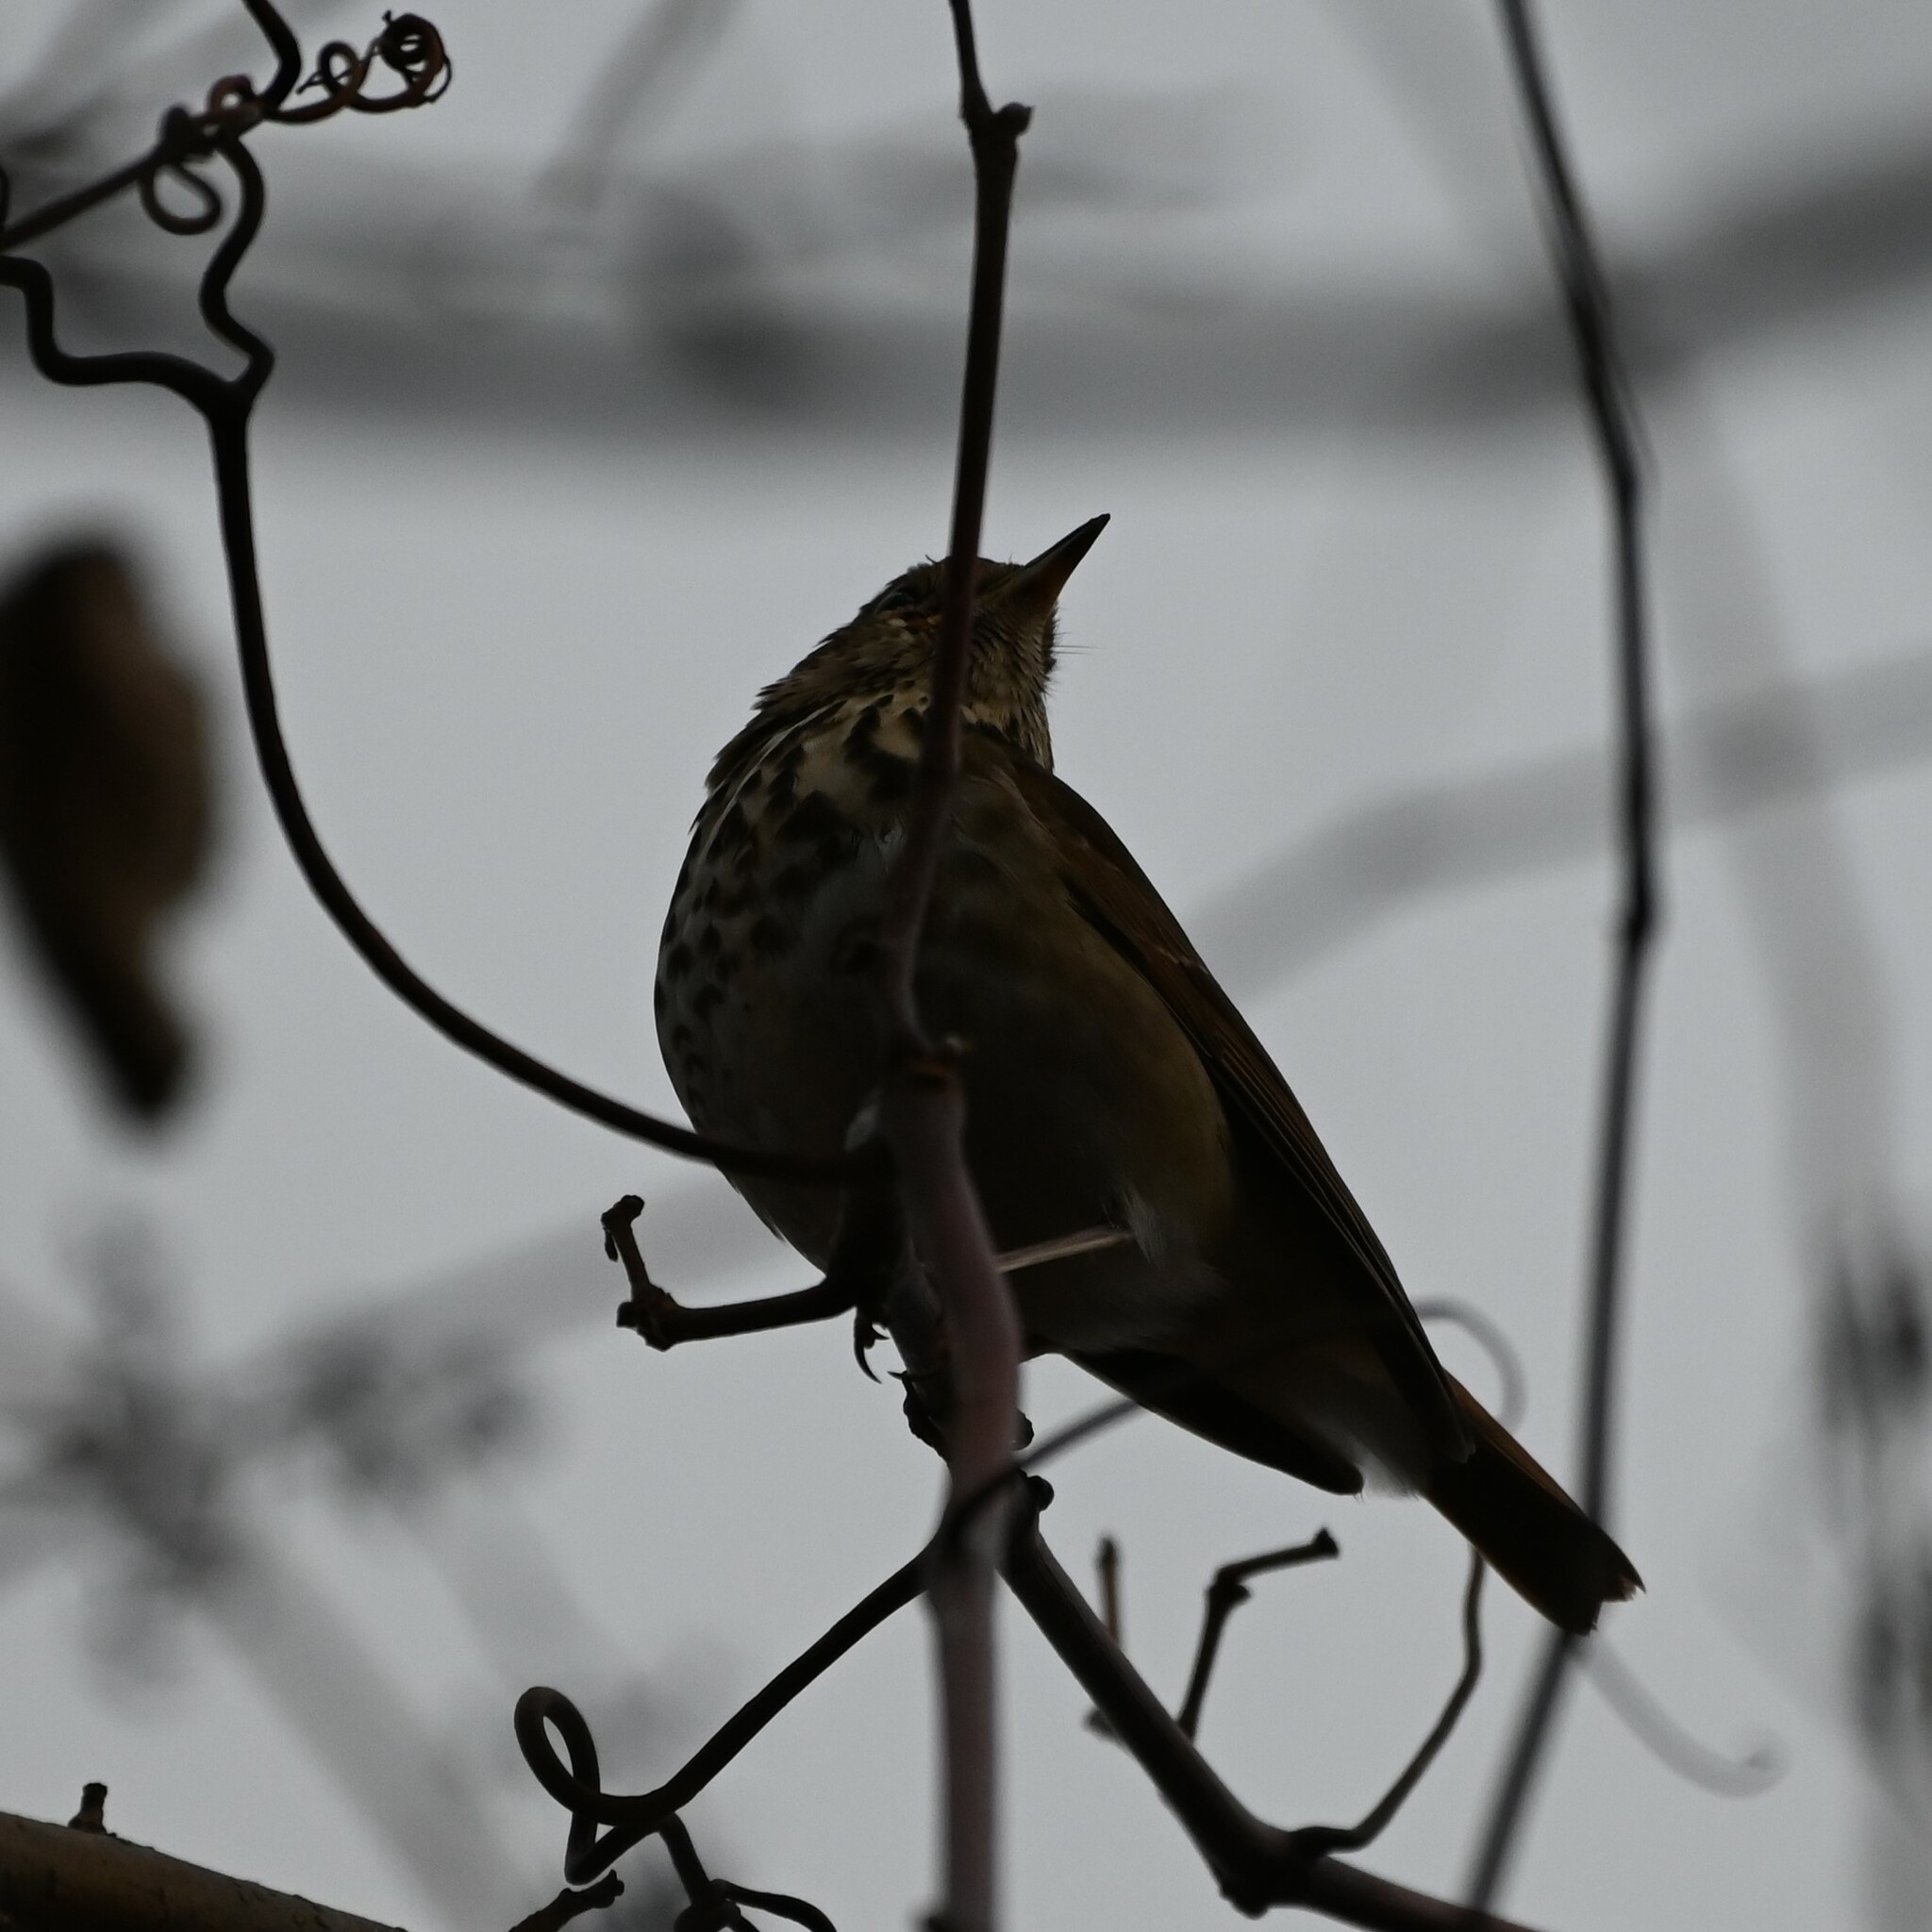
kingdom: Animalia
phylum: Chordata
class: Aves
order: Passeriformes
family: Turdidae
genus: Catharus
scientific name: Catharus guttatus
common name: Hermit thrush
